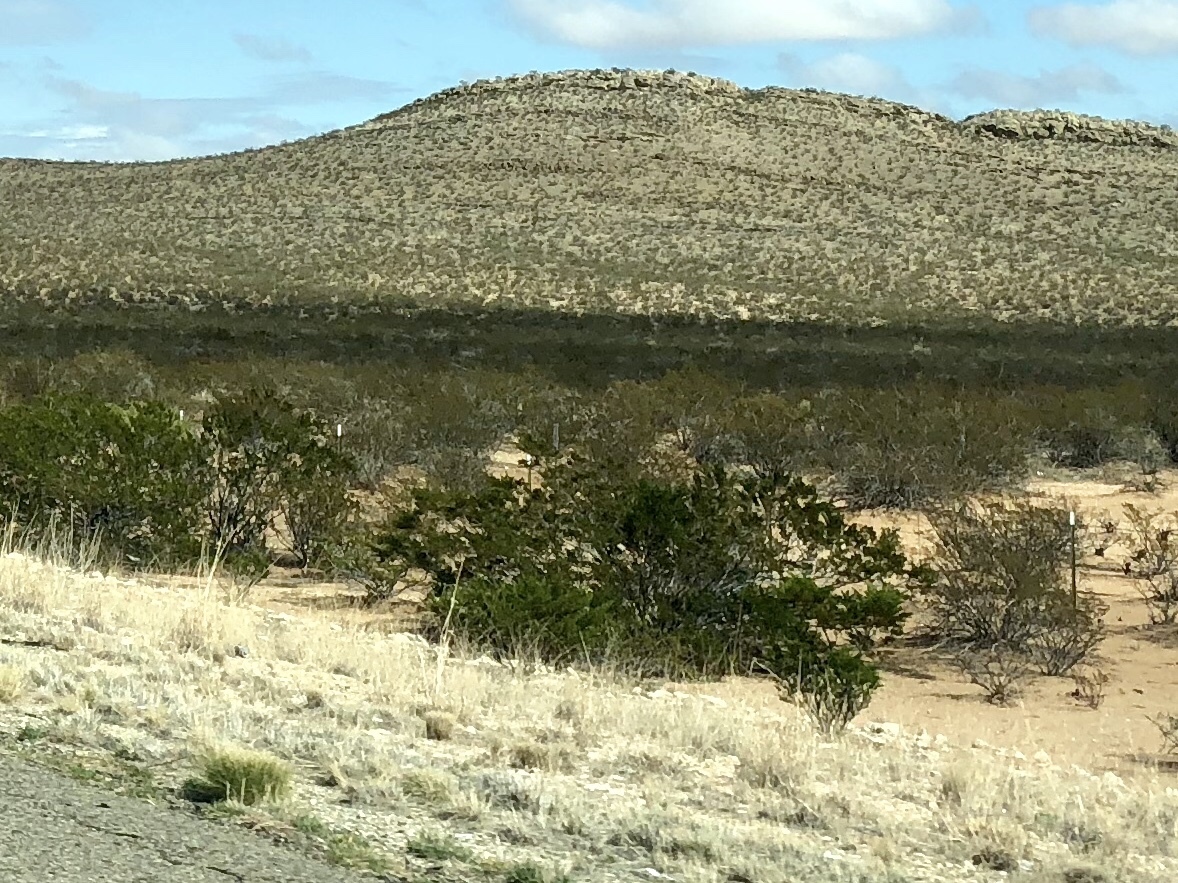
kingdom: Plantae
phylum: Tracheophyta
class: Magnoliopsida
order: Zygophyllales
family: Zygophyllaceae
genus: Larrea
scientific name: Larrea tridentata
